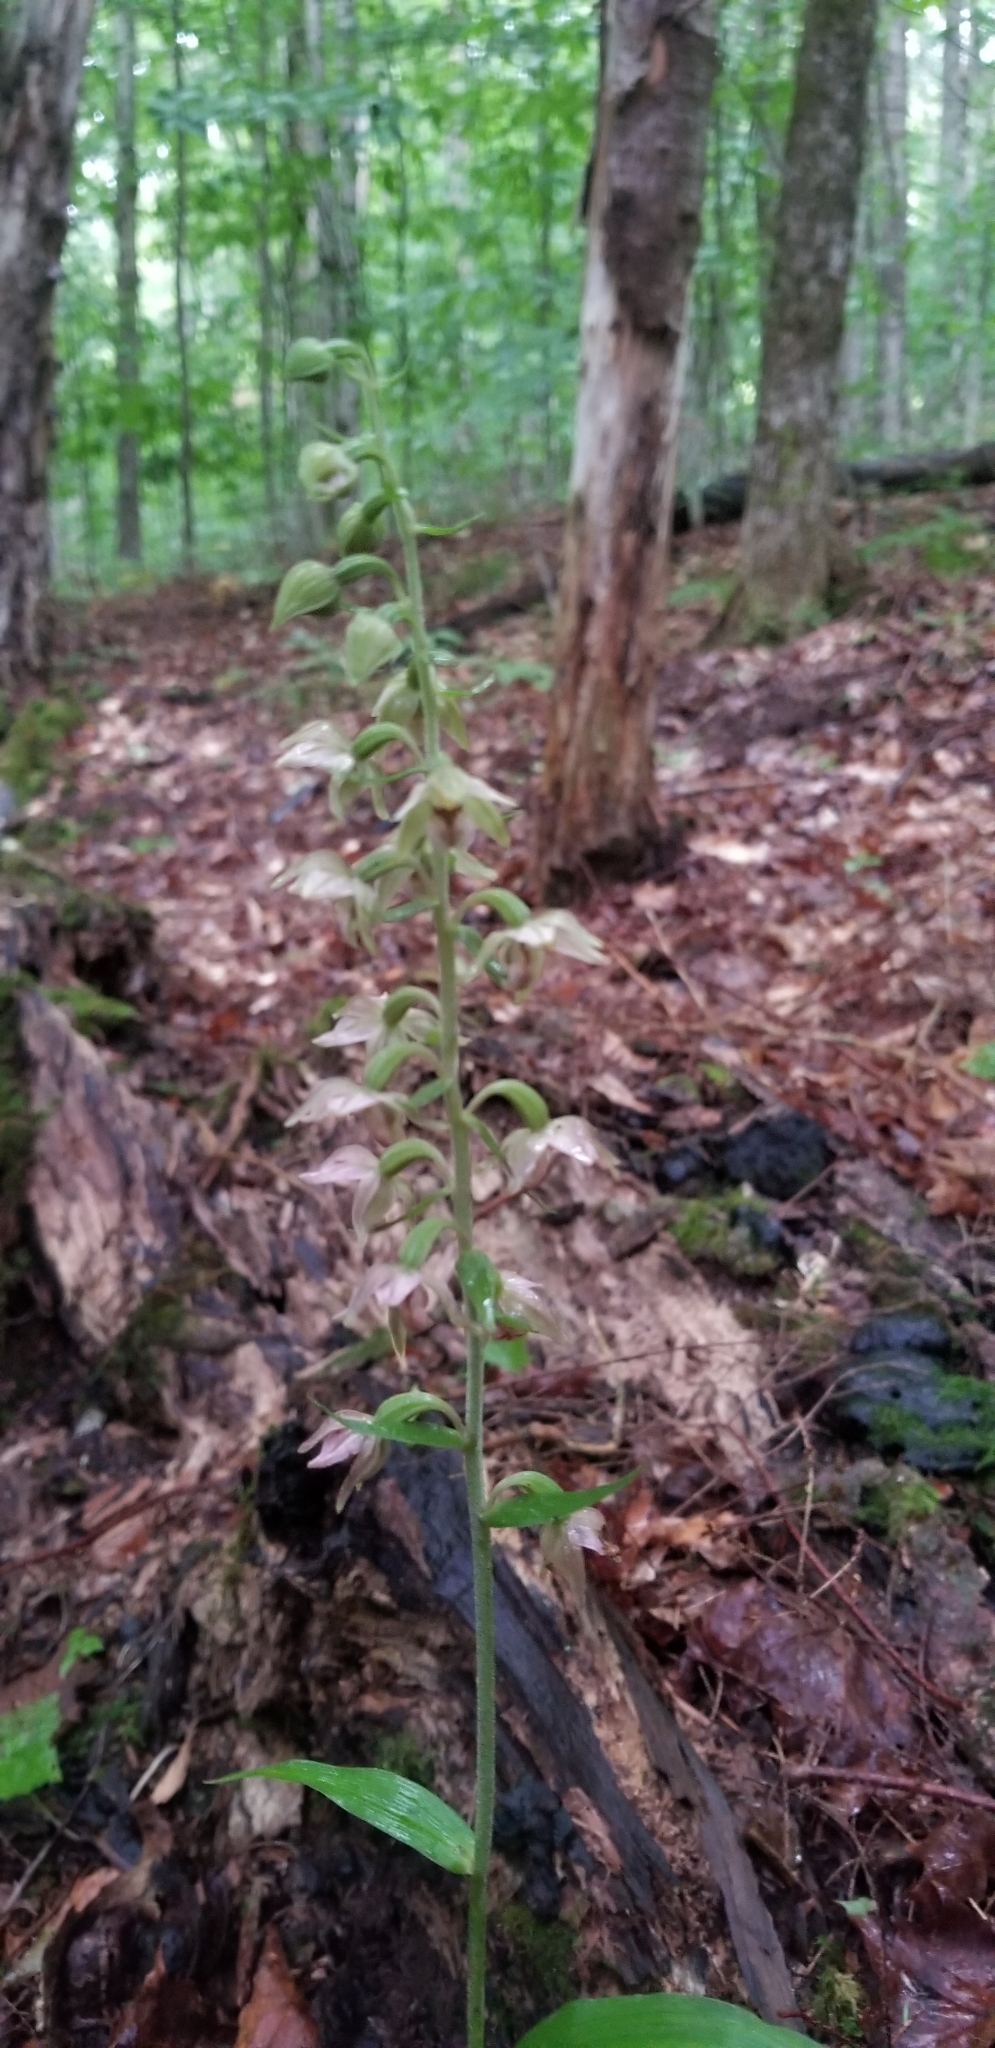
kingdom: Plantae
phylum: Tracheophyta
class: Liliopsida
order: Asparagales
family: Orchidaceae
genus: Epipactis
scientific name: Epipactis helleborine
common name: Broad-leaved helleborine
